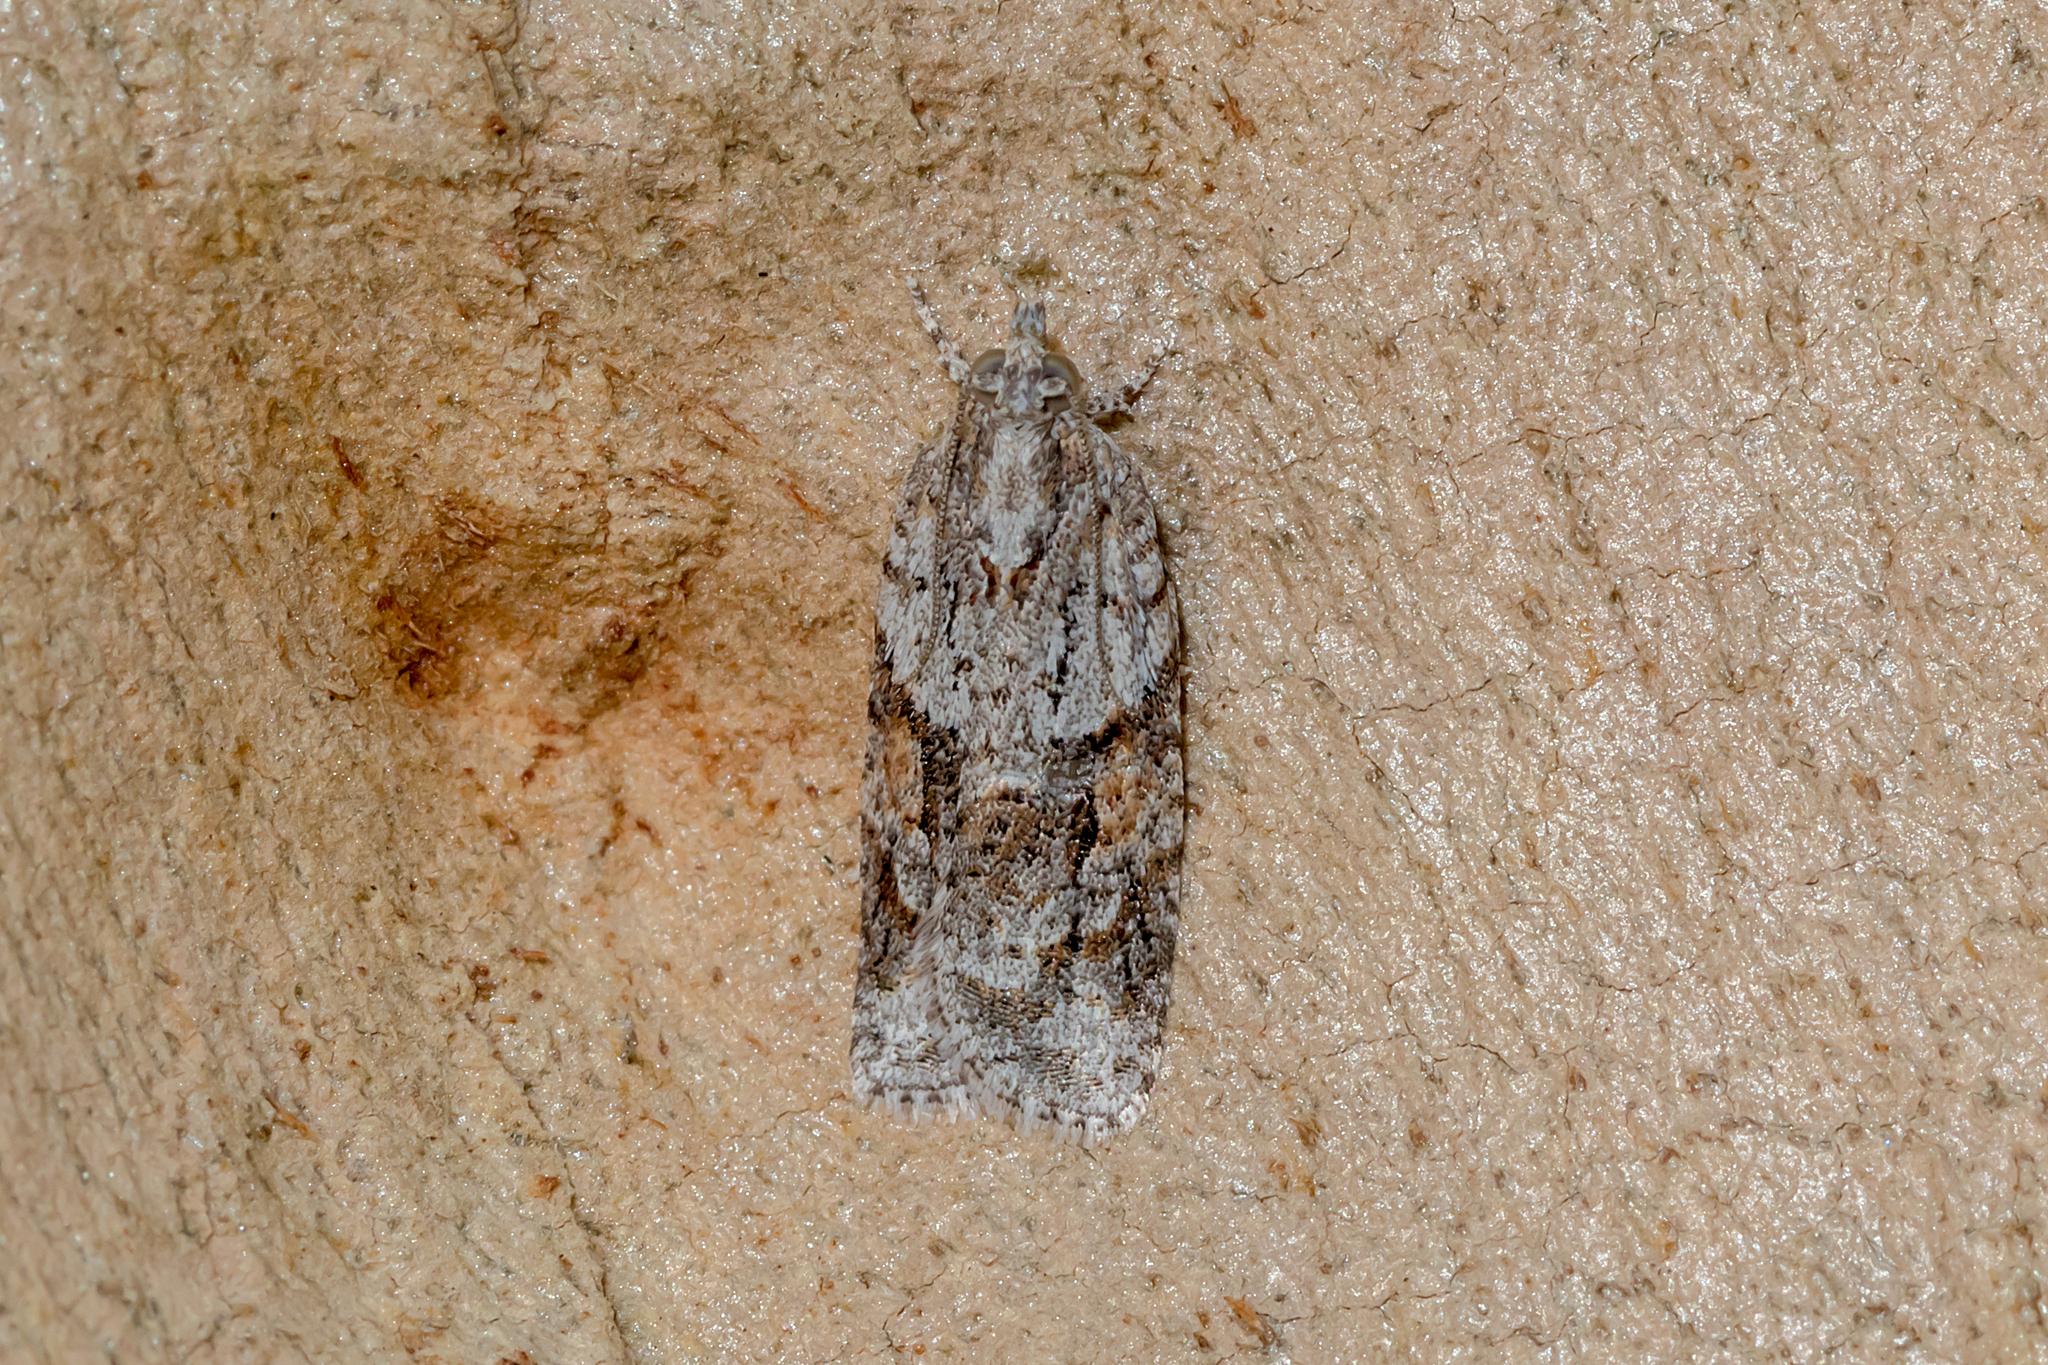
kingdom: Animalia
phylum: Arthropoda
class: Insecta
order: Lepidoptera
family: Tortricidae
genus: Acropolitis
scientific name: Acropolitis rudisana
